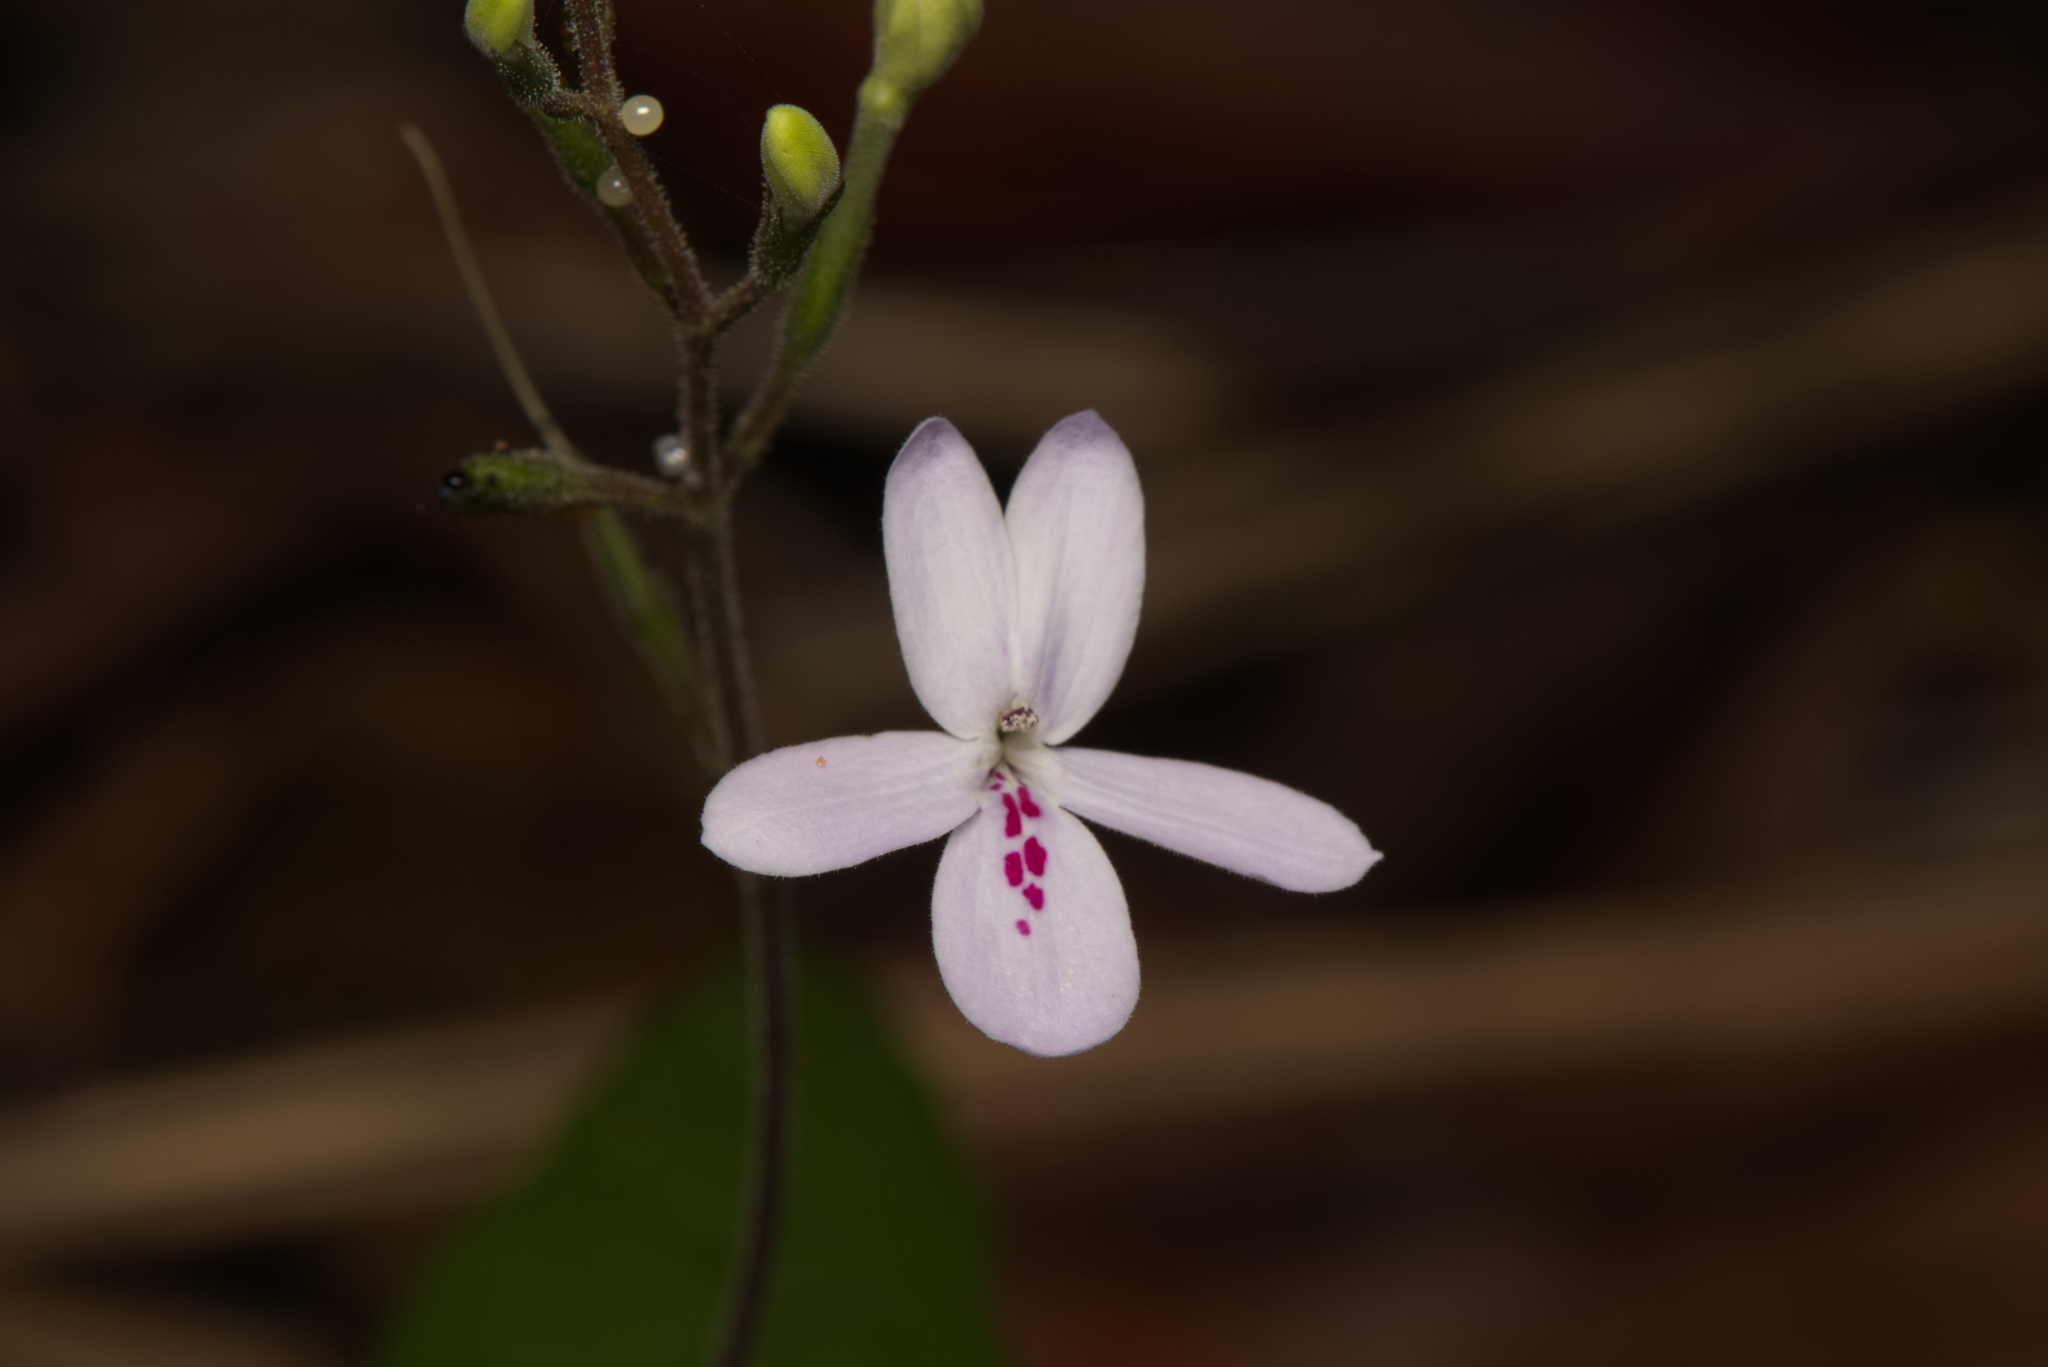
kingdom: Plantae
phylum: Tracheophyta
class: Magnoliopsida
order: Lamiales
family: Acanthaceae
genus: Pseuderanthemum
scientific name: Pseuderanthemum variabile
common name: Night and afternoon
